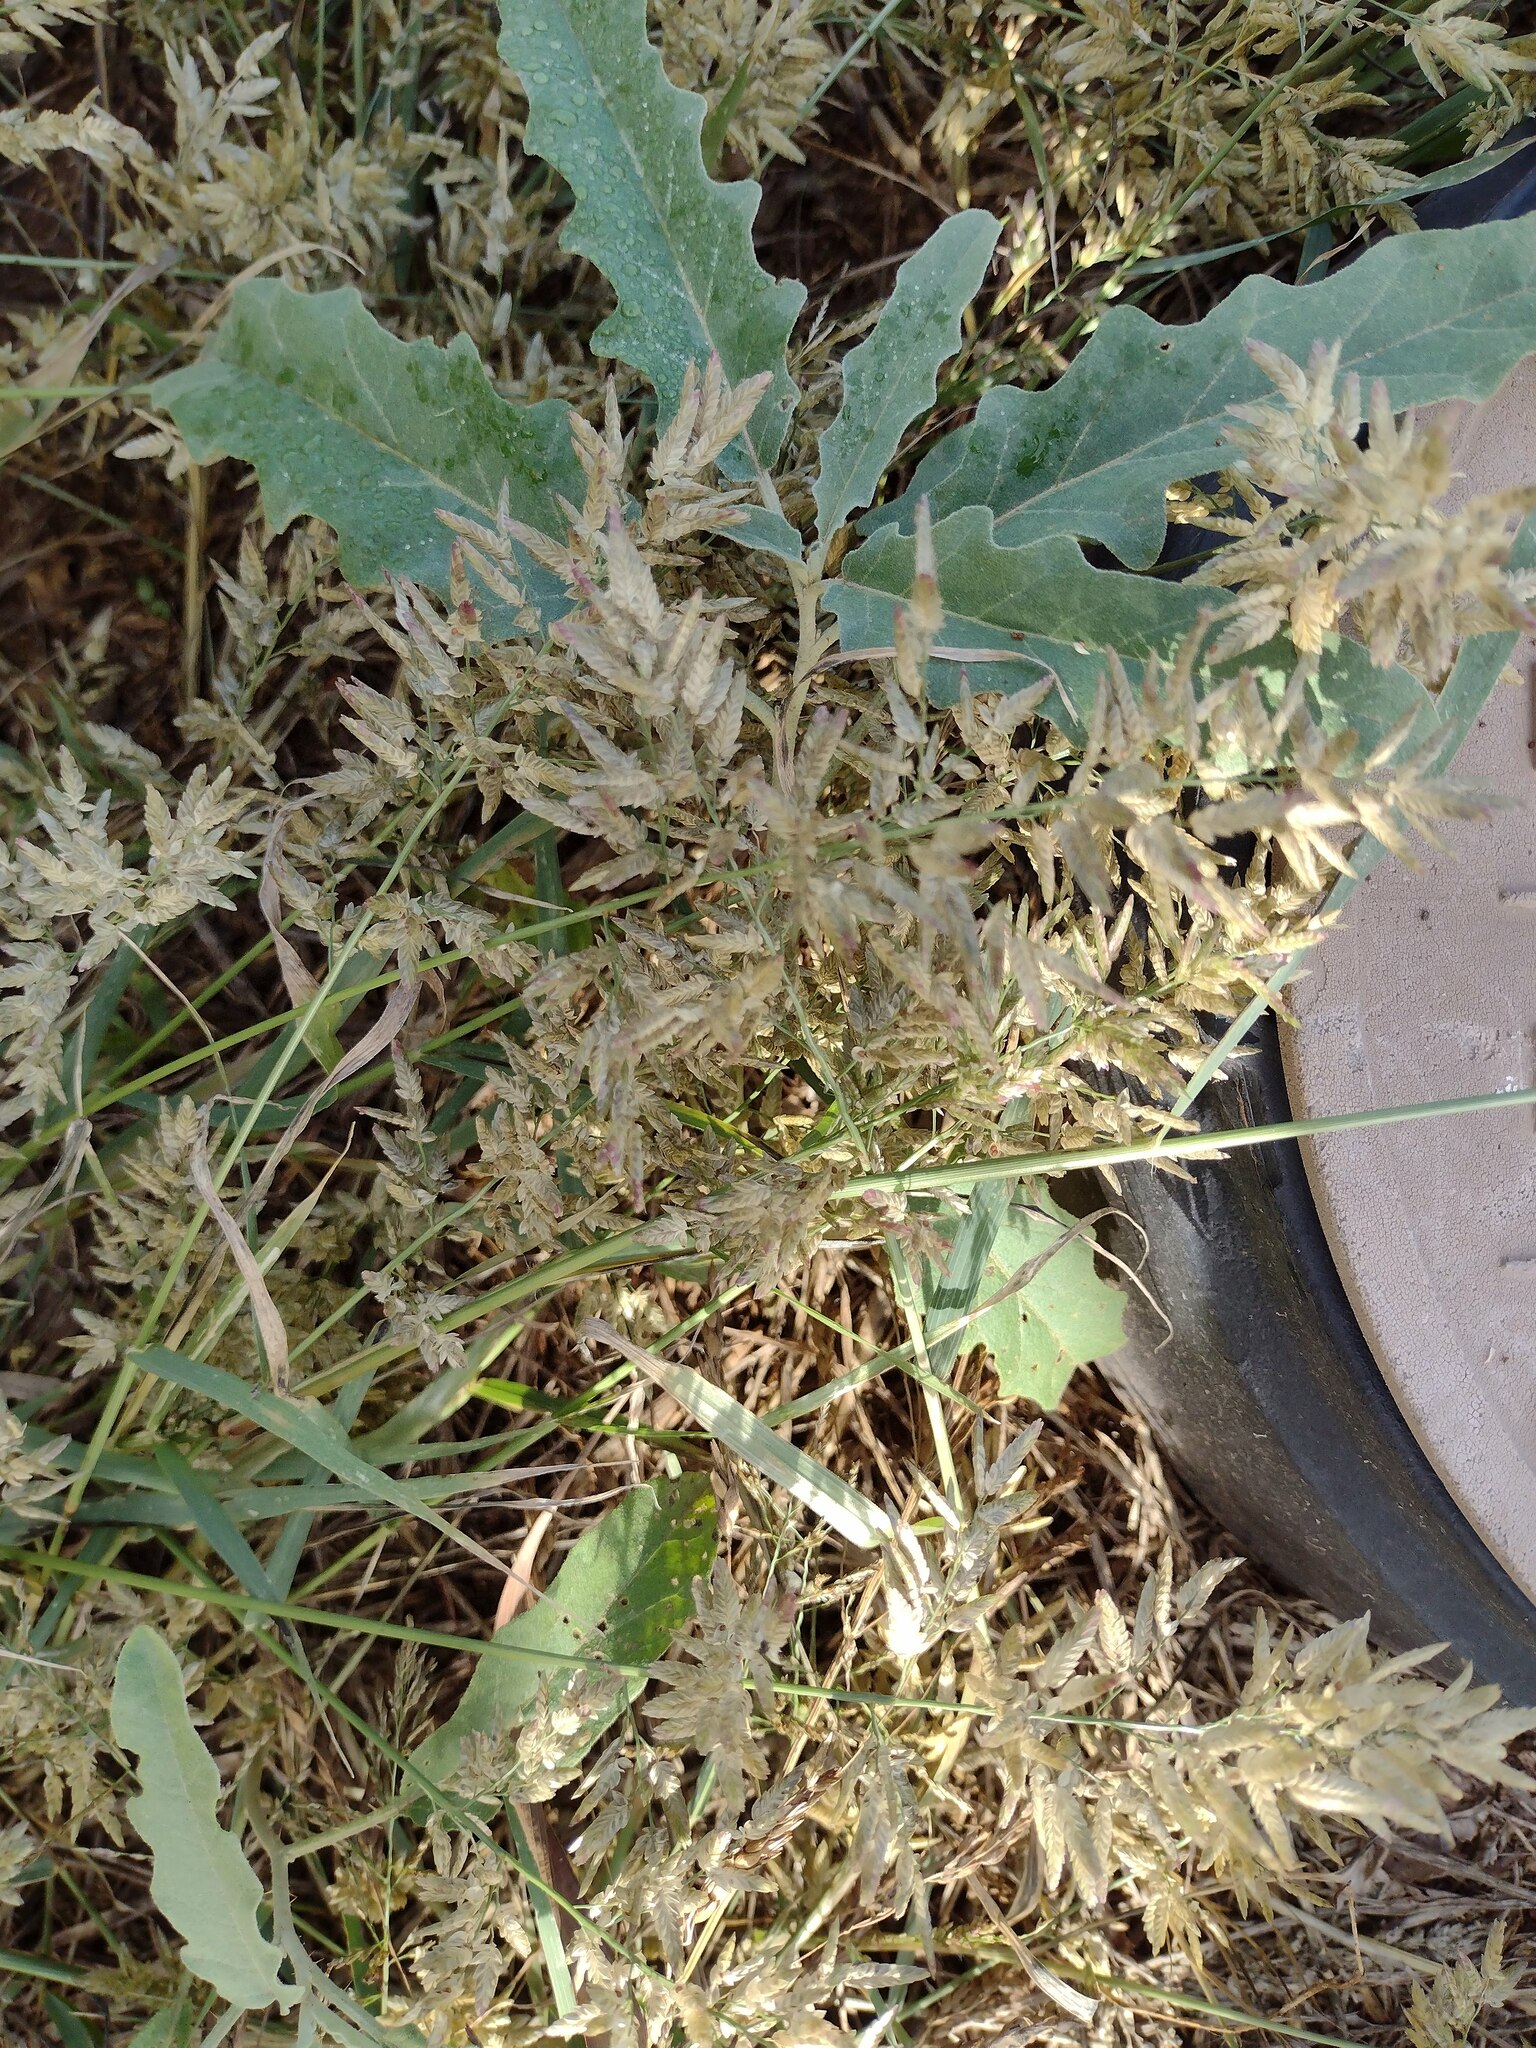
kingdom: Plantae
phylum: Tracheophyta
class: Liliopsida
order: Poales
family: Poaceae
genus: Eragrostis
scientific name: Eragrostis cilianensis
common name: Stinkgrass
